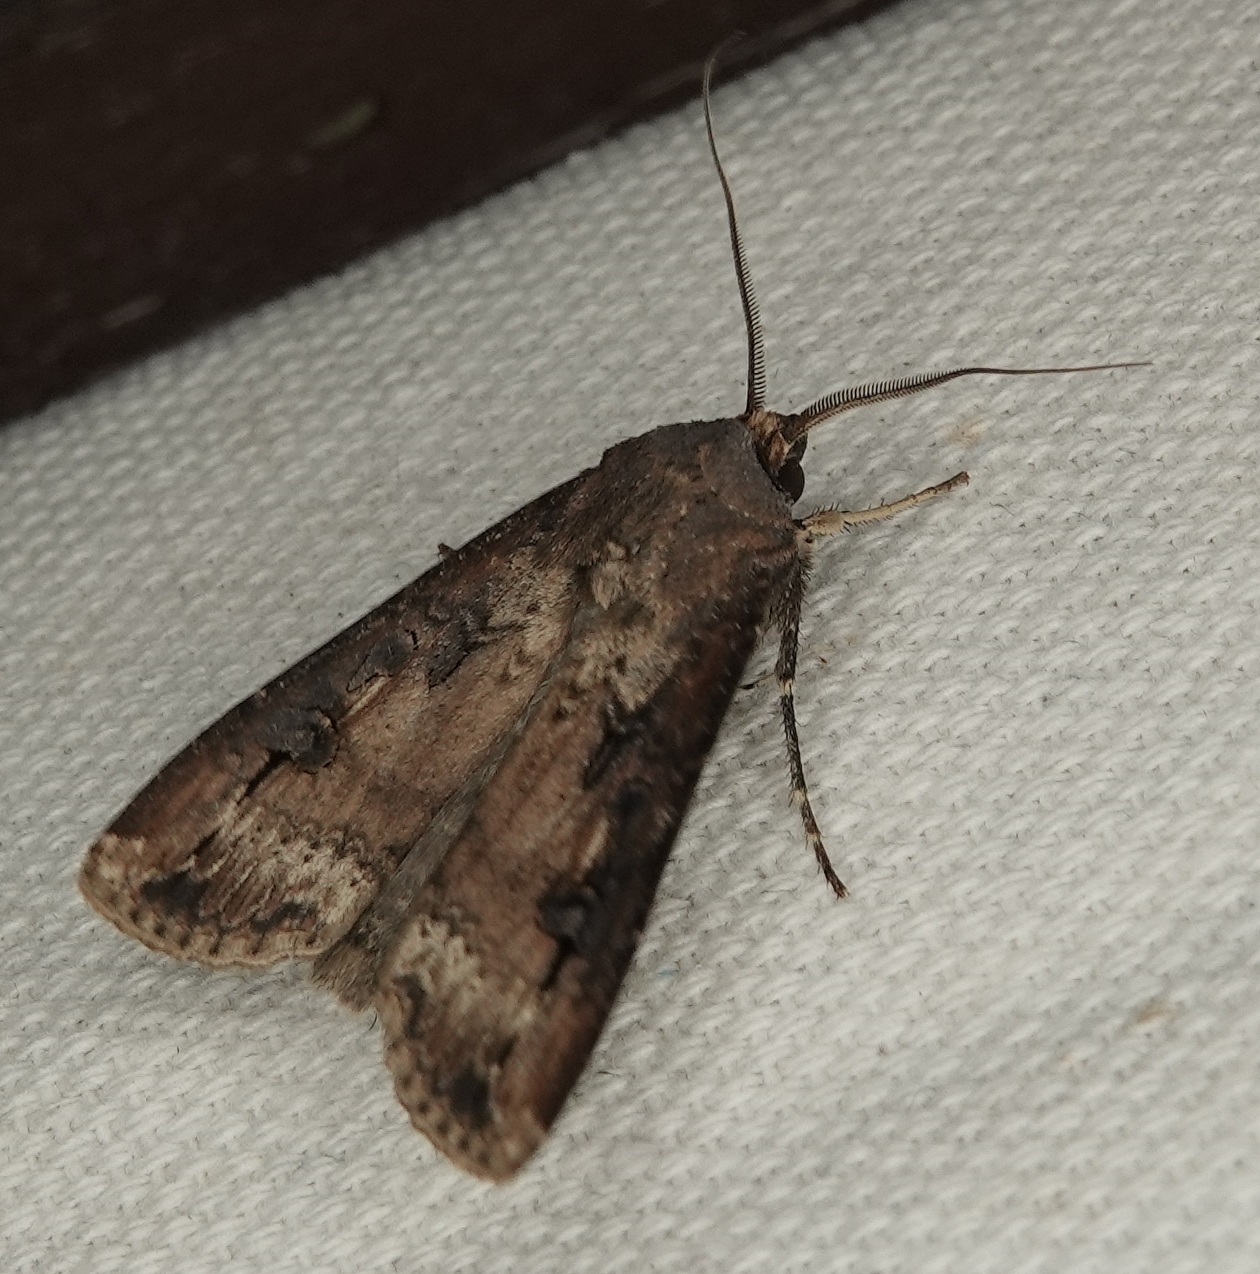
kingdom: Animalia
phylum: Arthropoda
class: Insecta
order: Lepidoptera
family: Noctuidae
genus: Agrotis
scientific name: Agrotis ipsilon
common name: Dark sword-grass
